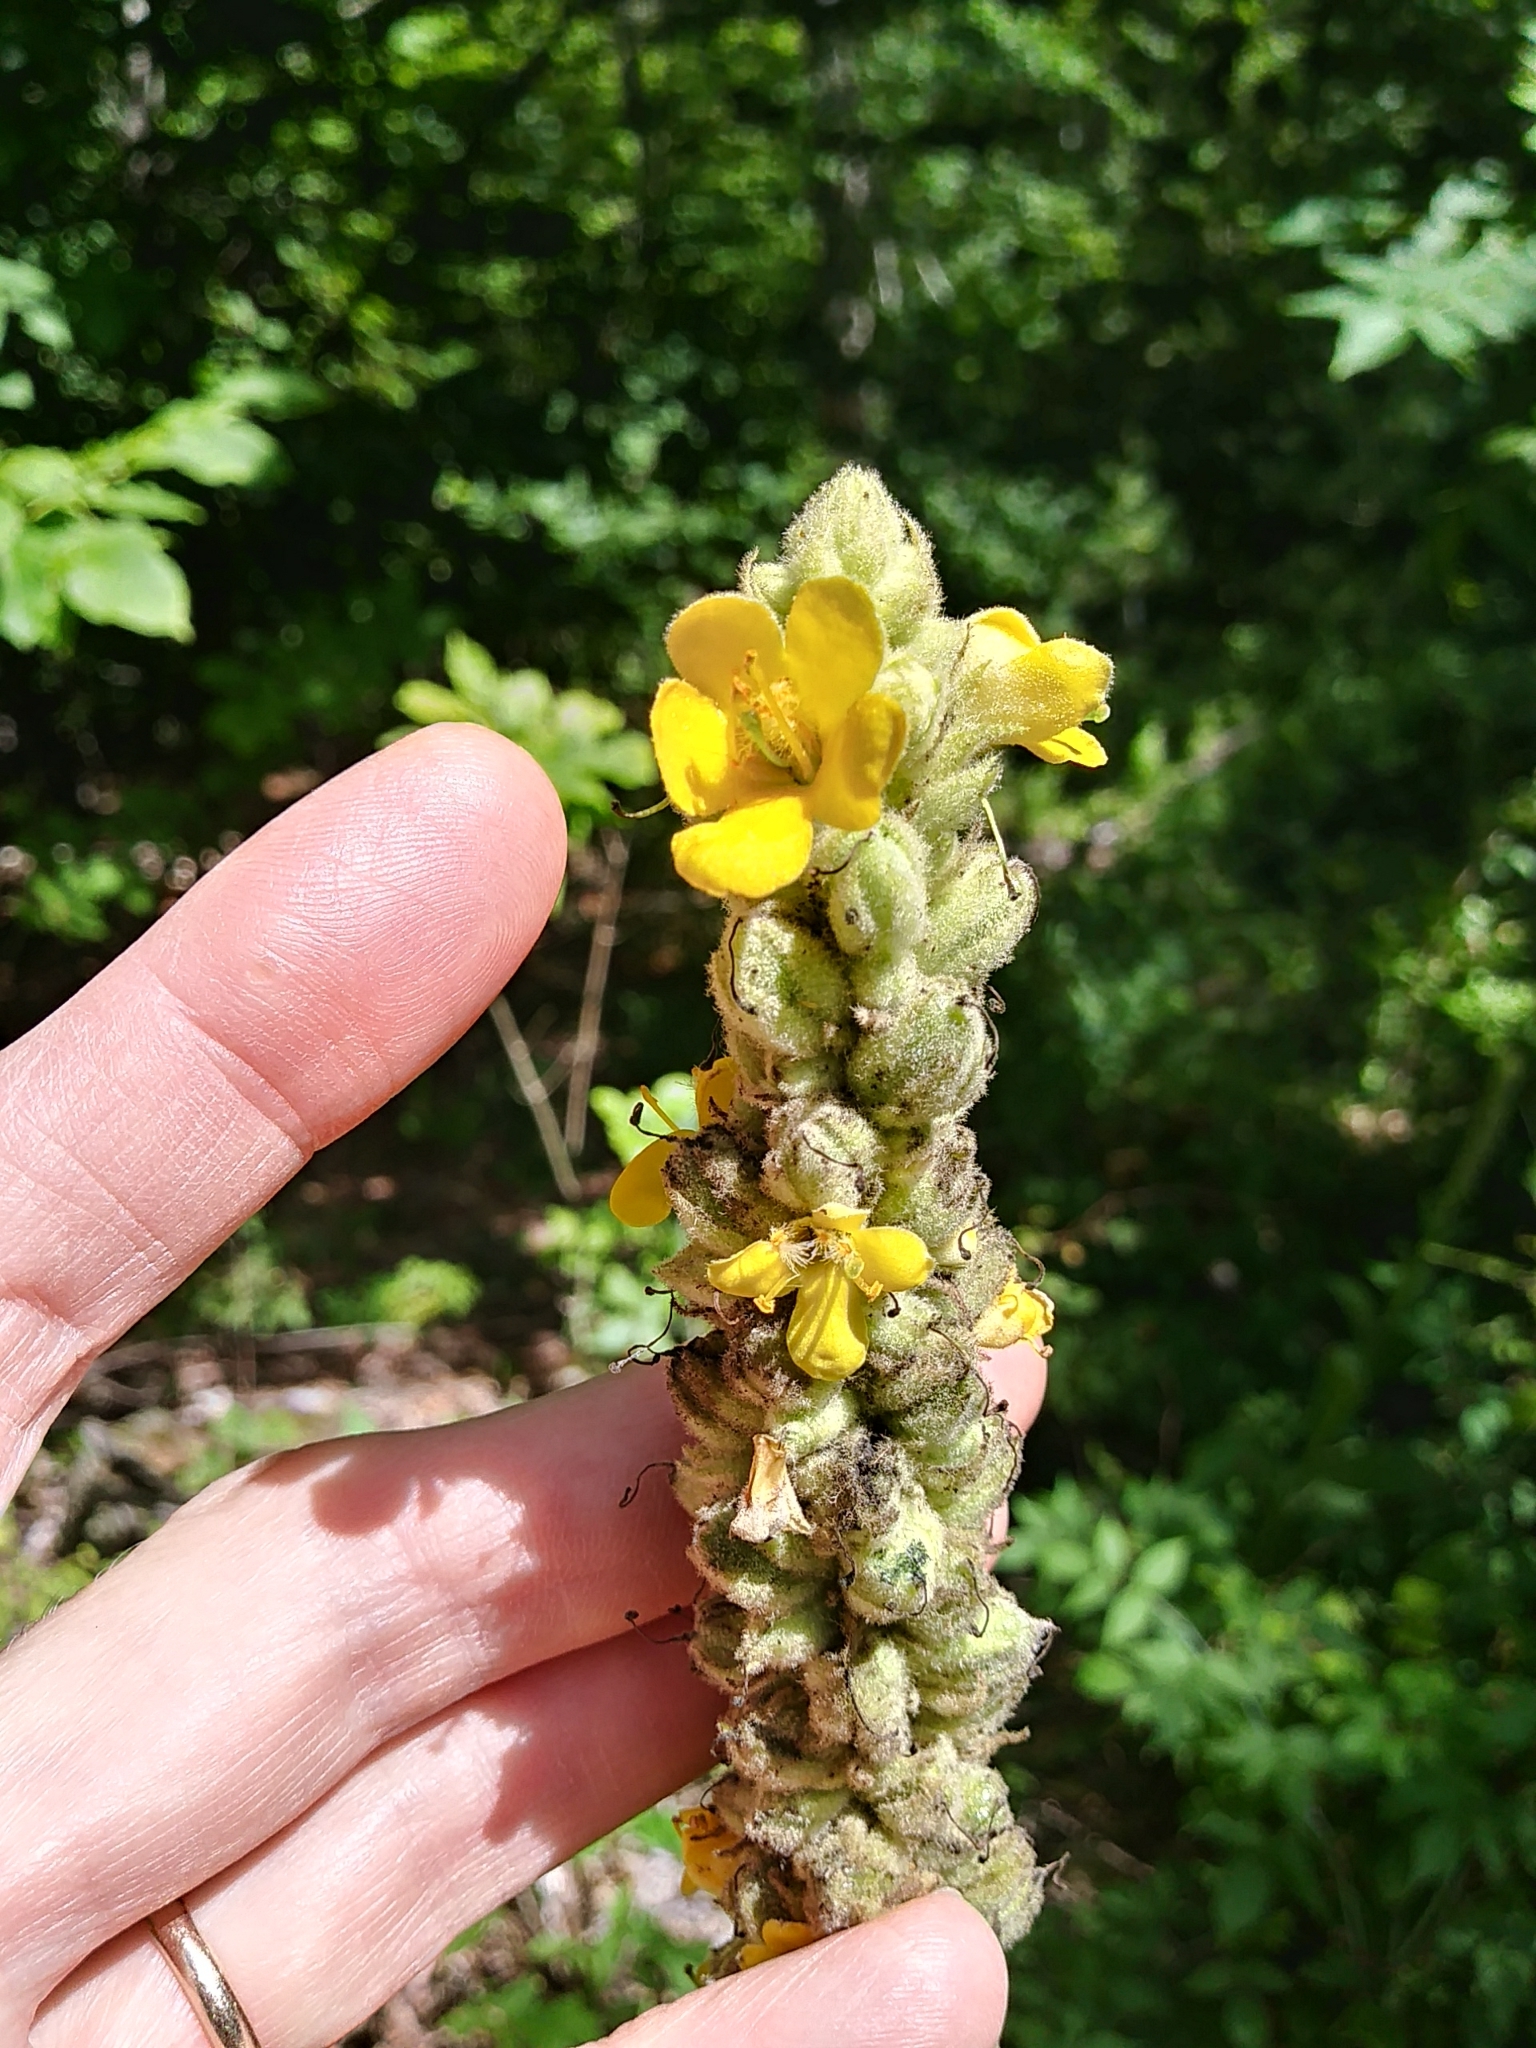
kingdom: Plantae
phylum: Tracheophyta
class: Magnoliopsida
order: Lamiales
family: Scrophulariaceae
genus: Verbascum
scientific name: Verbascum thapsus
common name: Common mullein
